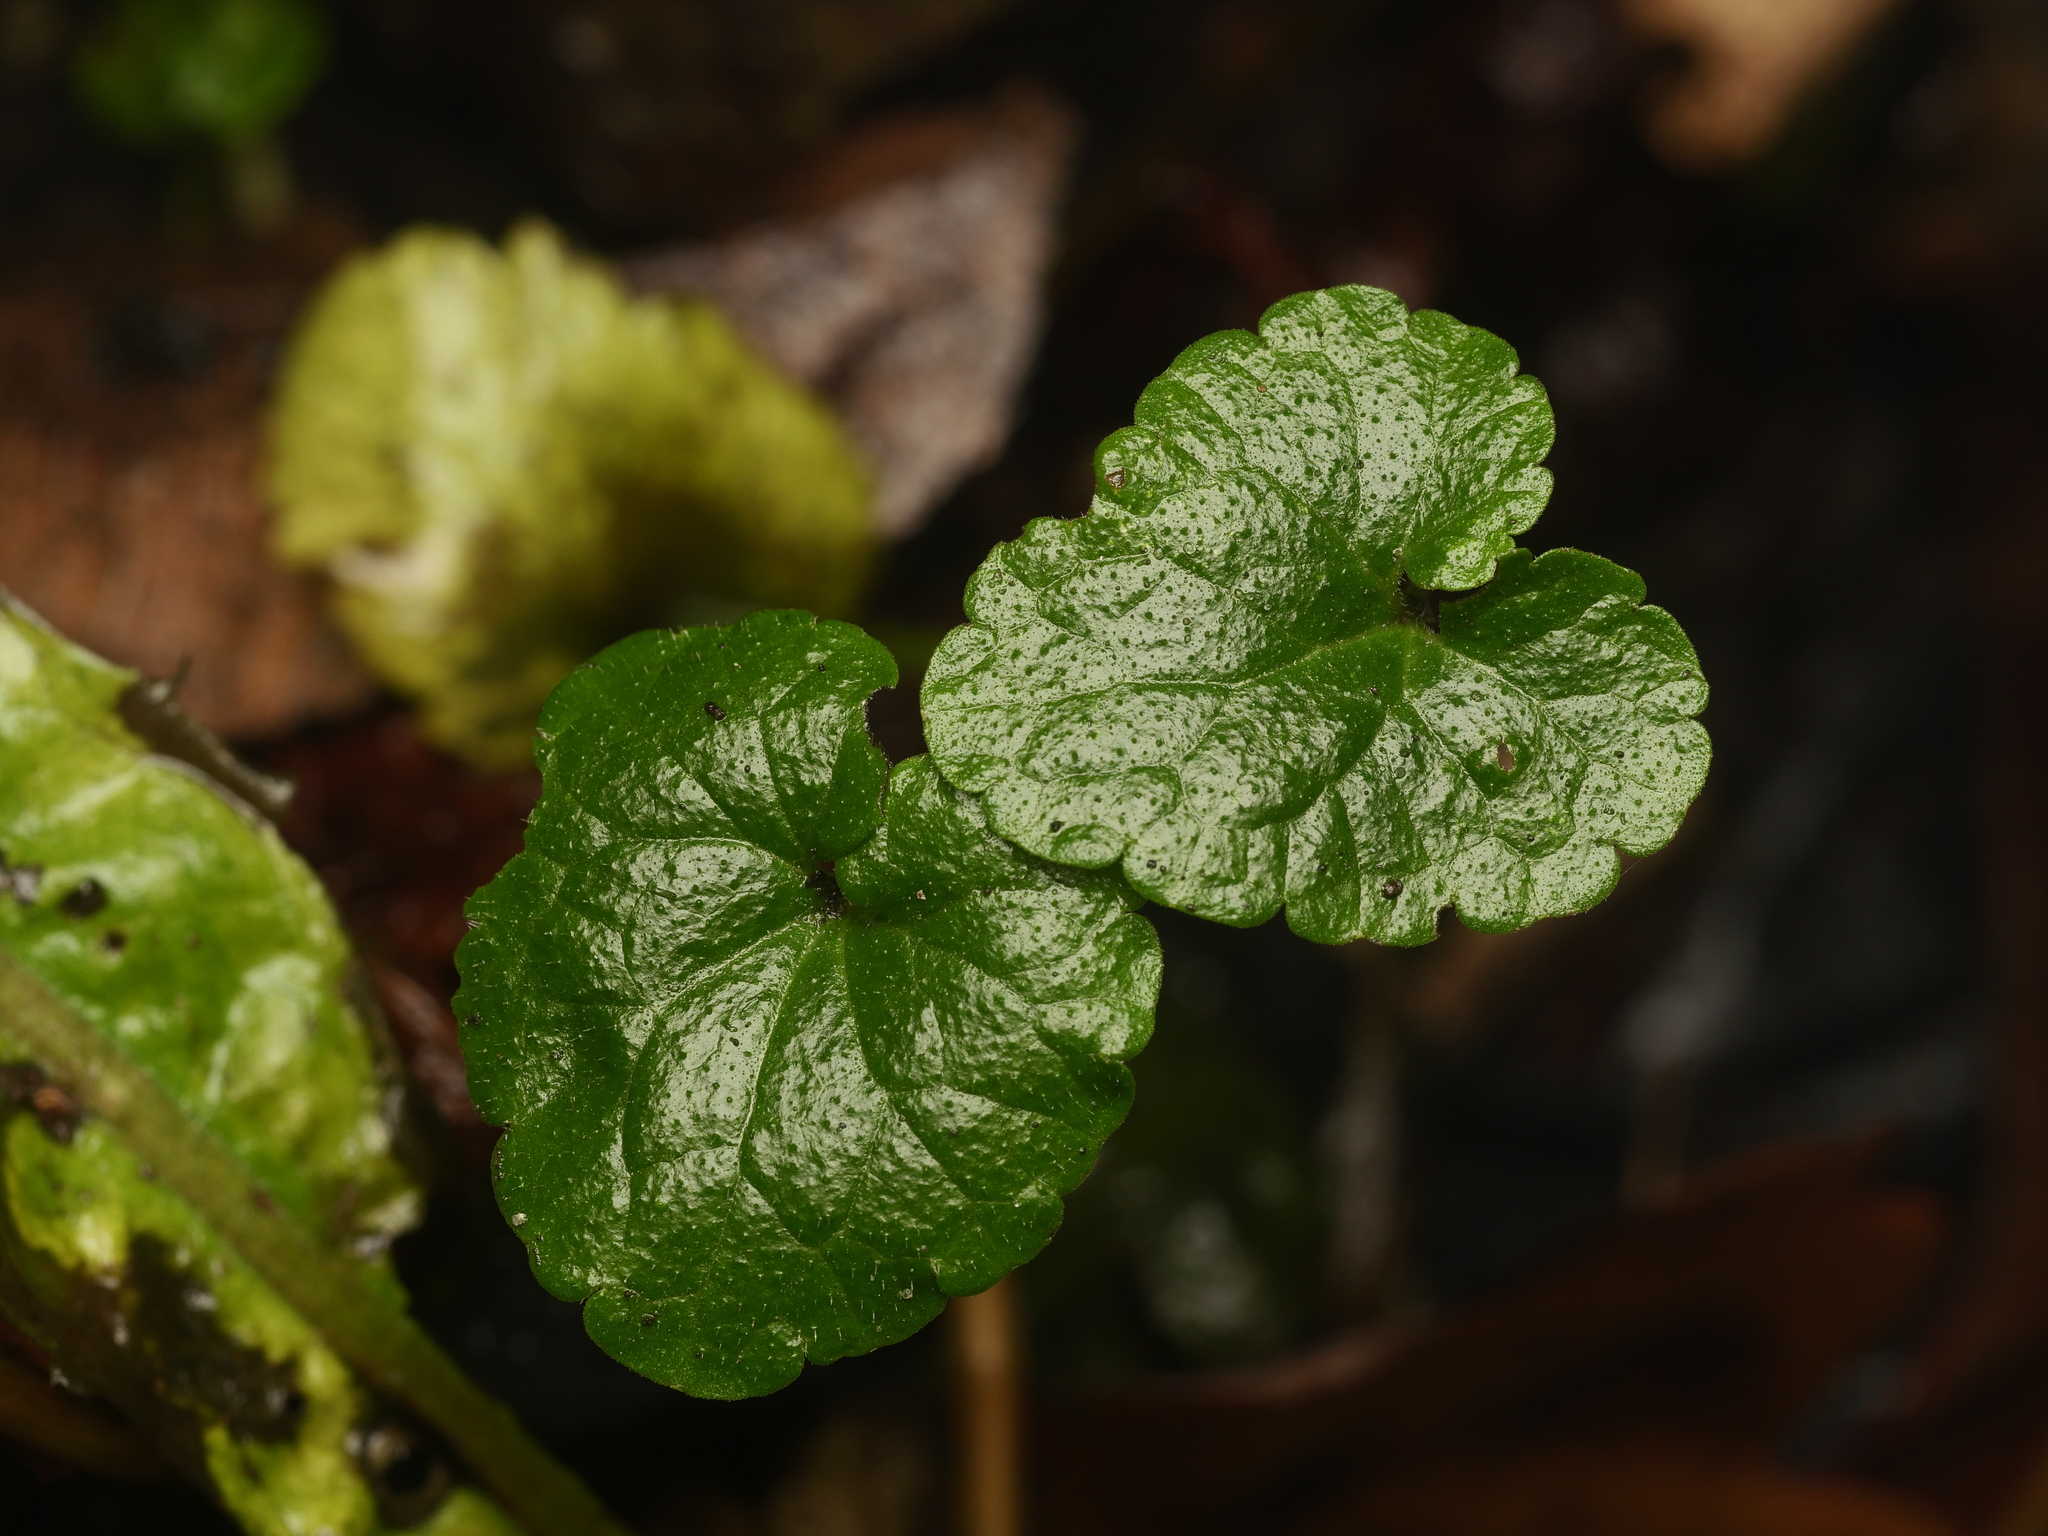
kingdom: Plantae
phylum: Tracheophyta
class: Magnoliopsida
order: Lamiales
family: Lamiaceae
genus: Glechoma
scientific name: Glechoma hederacea
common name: Ground ivy
